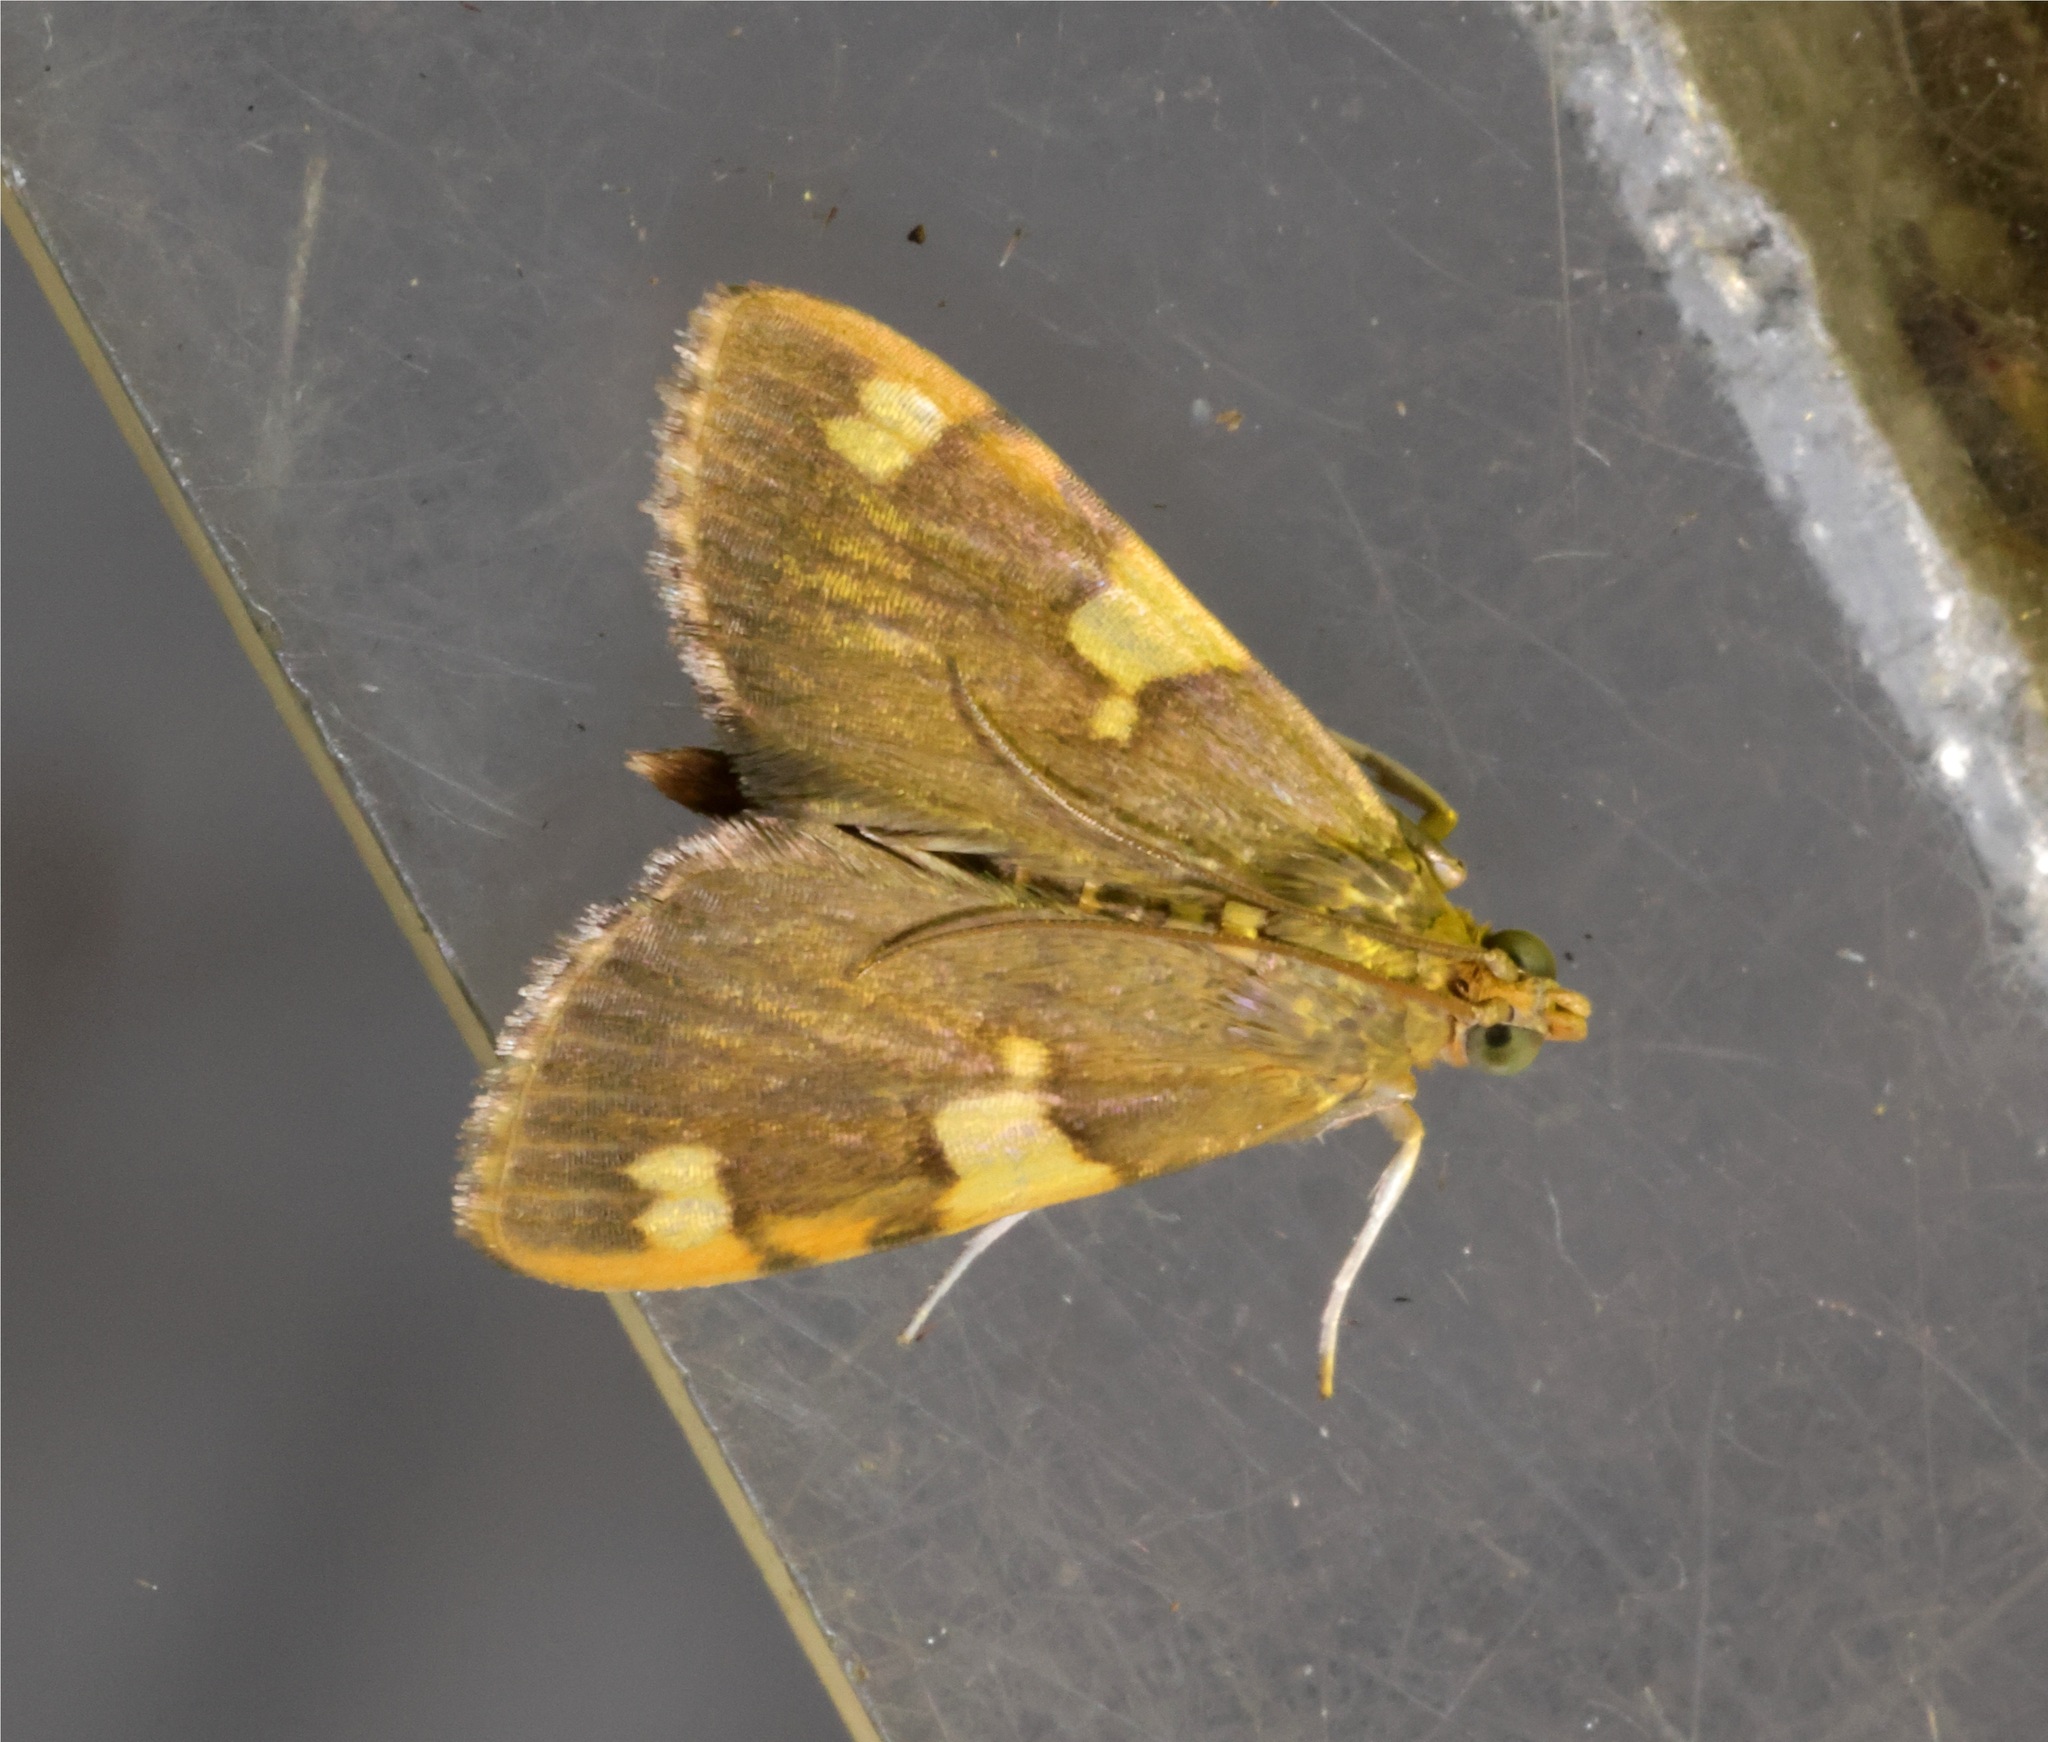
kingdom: Animalia
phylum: Arthropoda
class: Insecta
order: Lepidoptera
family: Crambidae
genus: Rehimena
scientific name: Rehimena phrynealis
